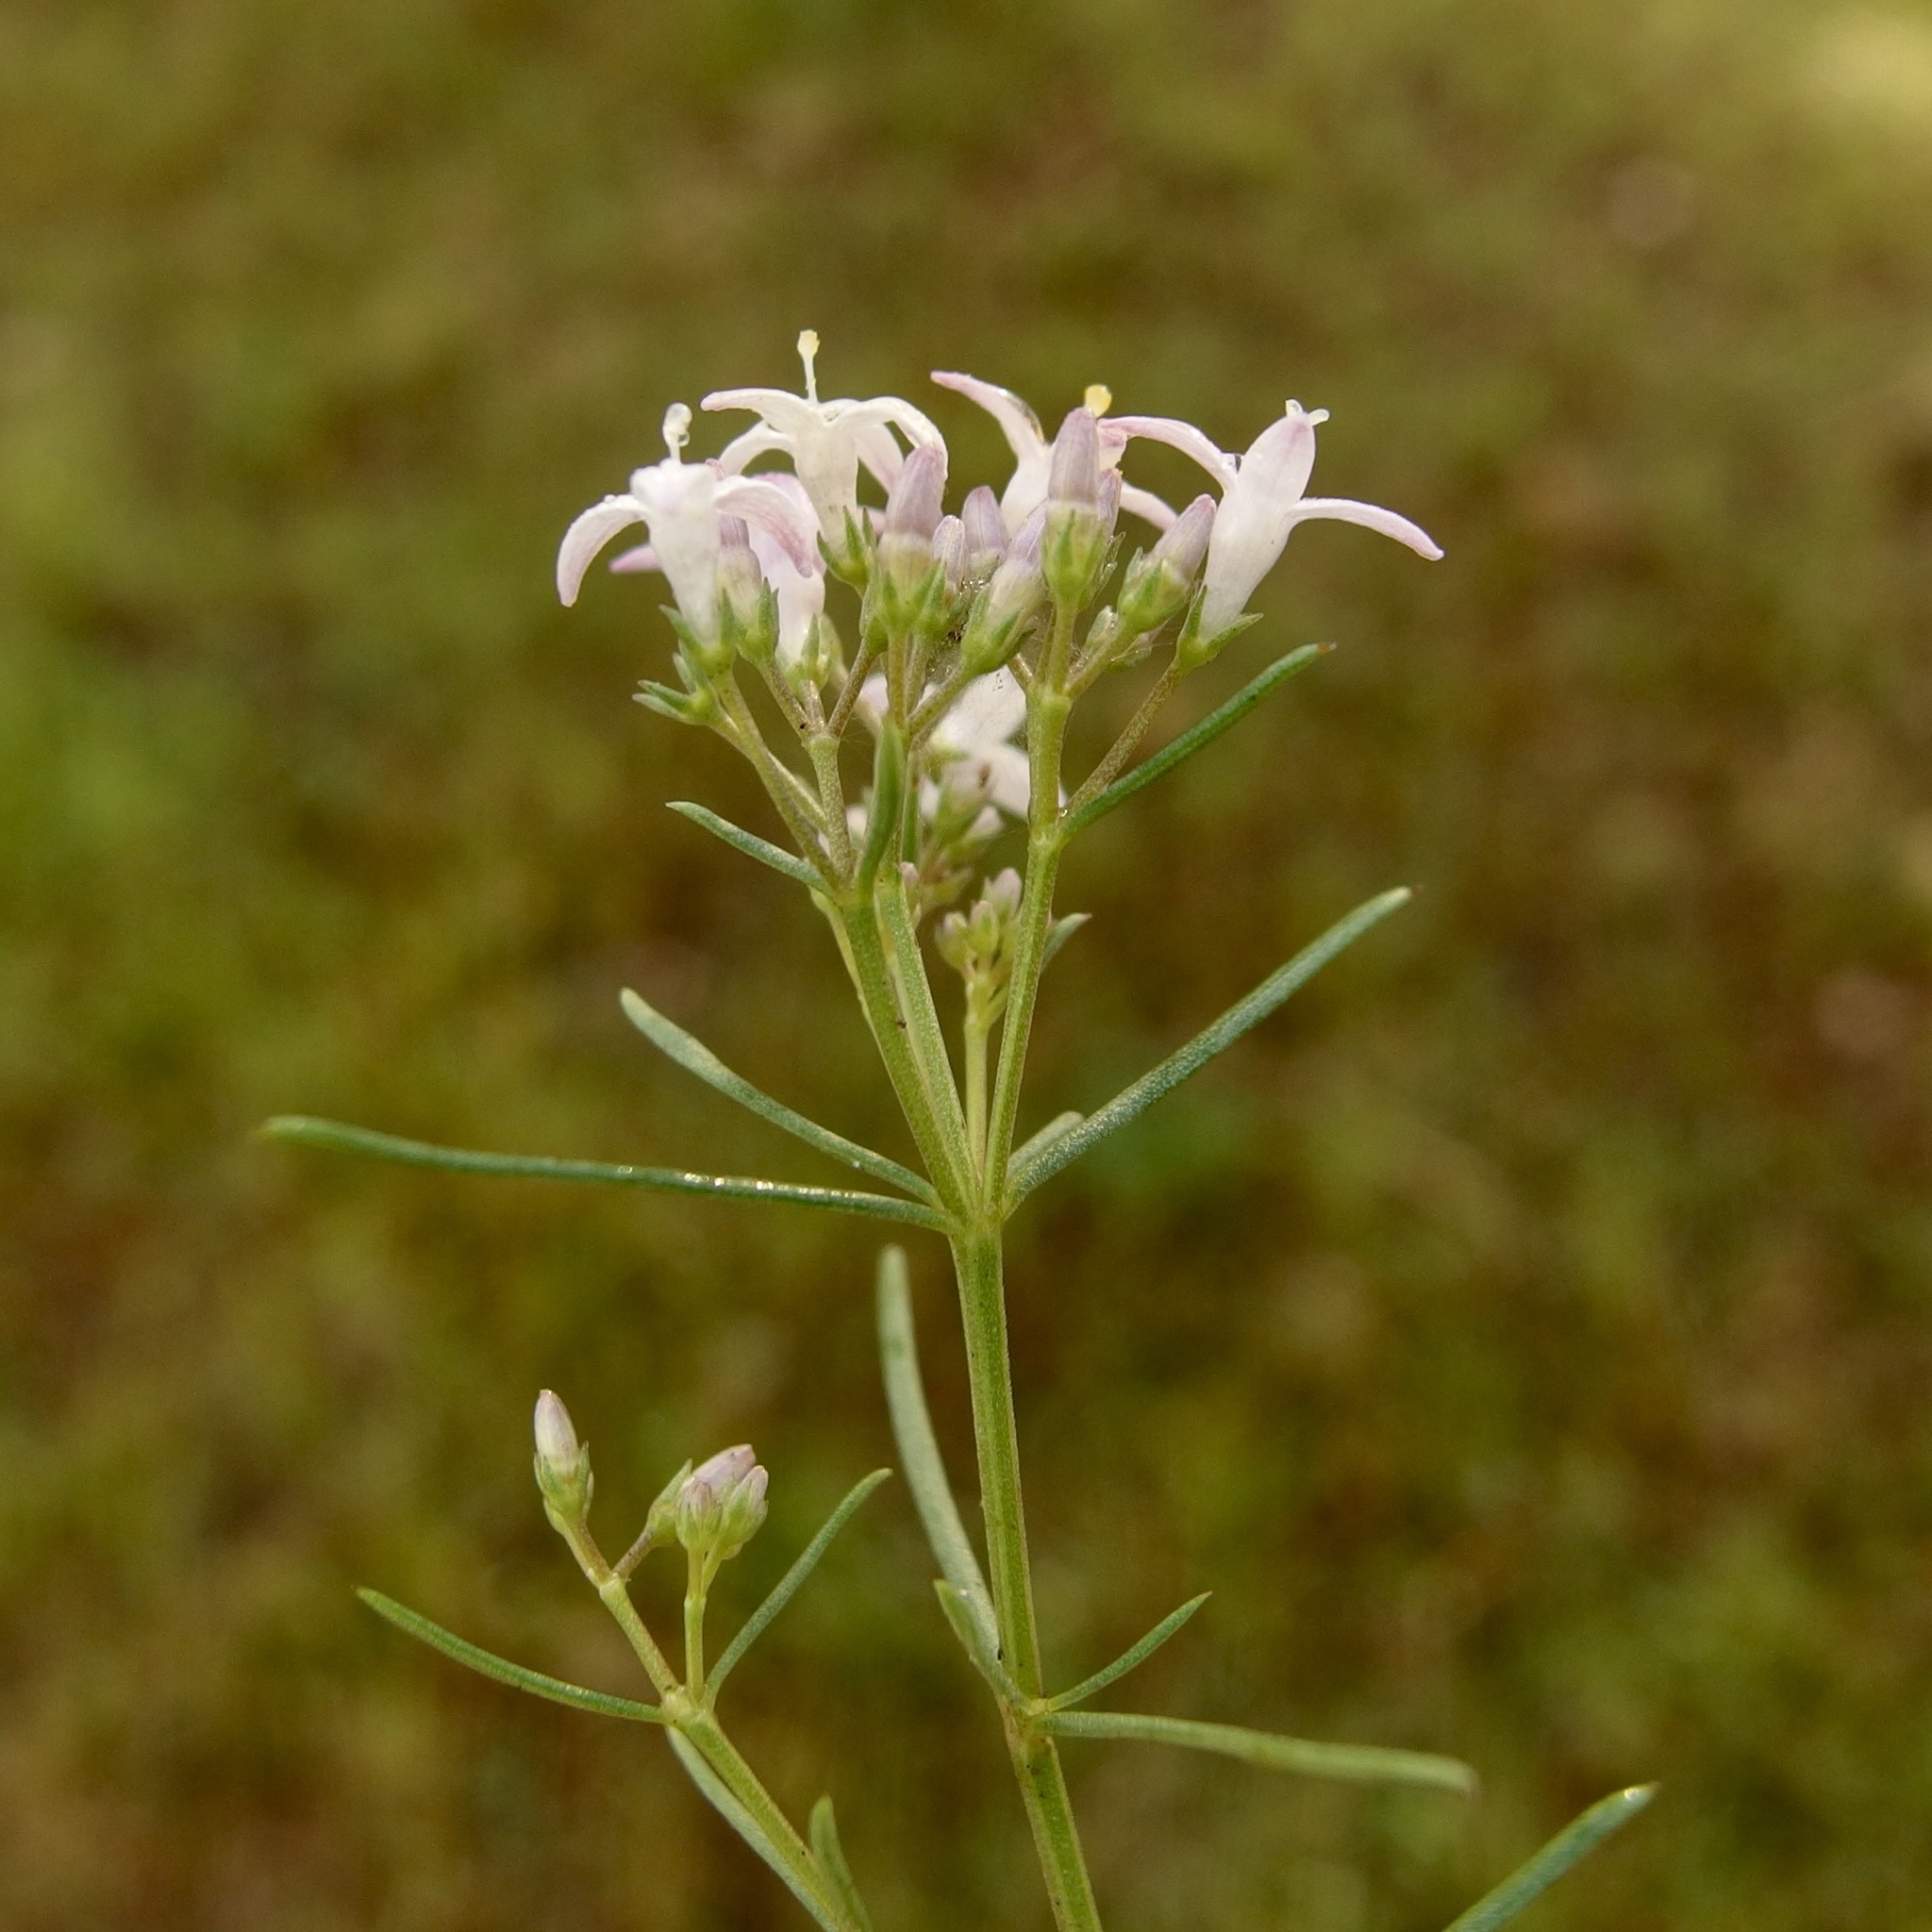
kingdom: Plantae
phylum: Tracheophyta
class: Magnoliopsida
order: Gentianales
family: Rubiaceae
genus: Houstonia
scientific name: Houstonia wrightii
